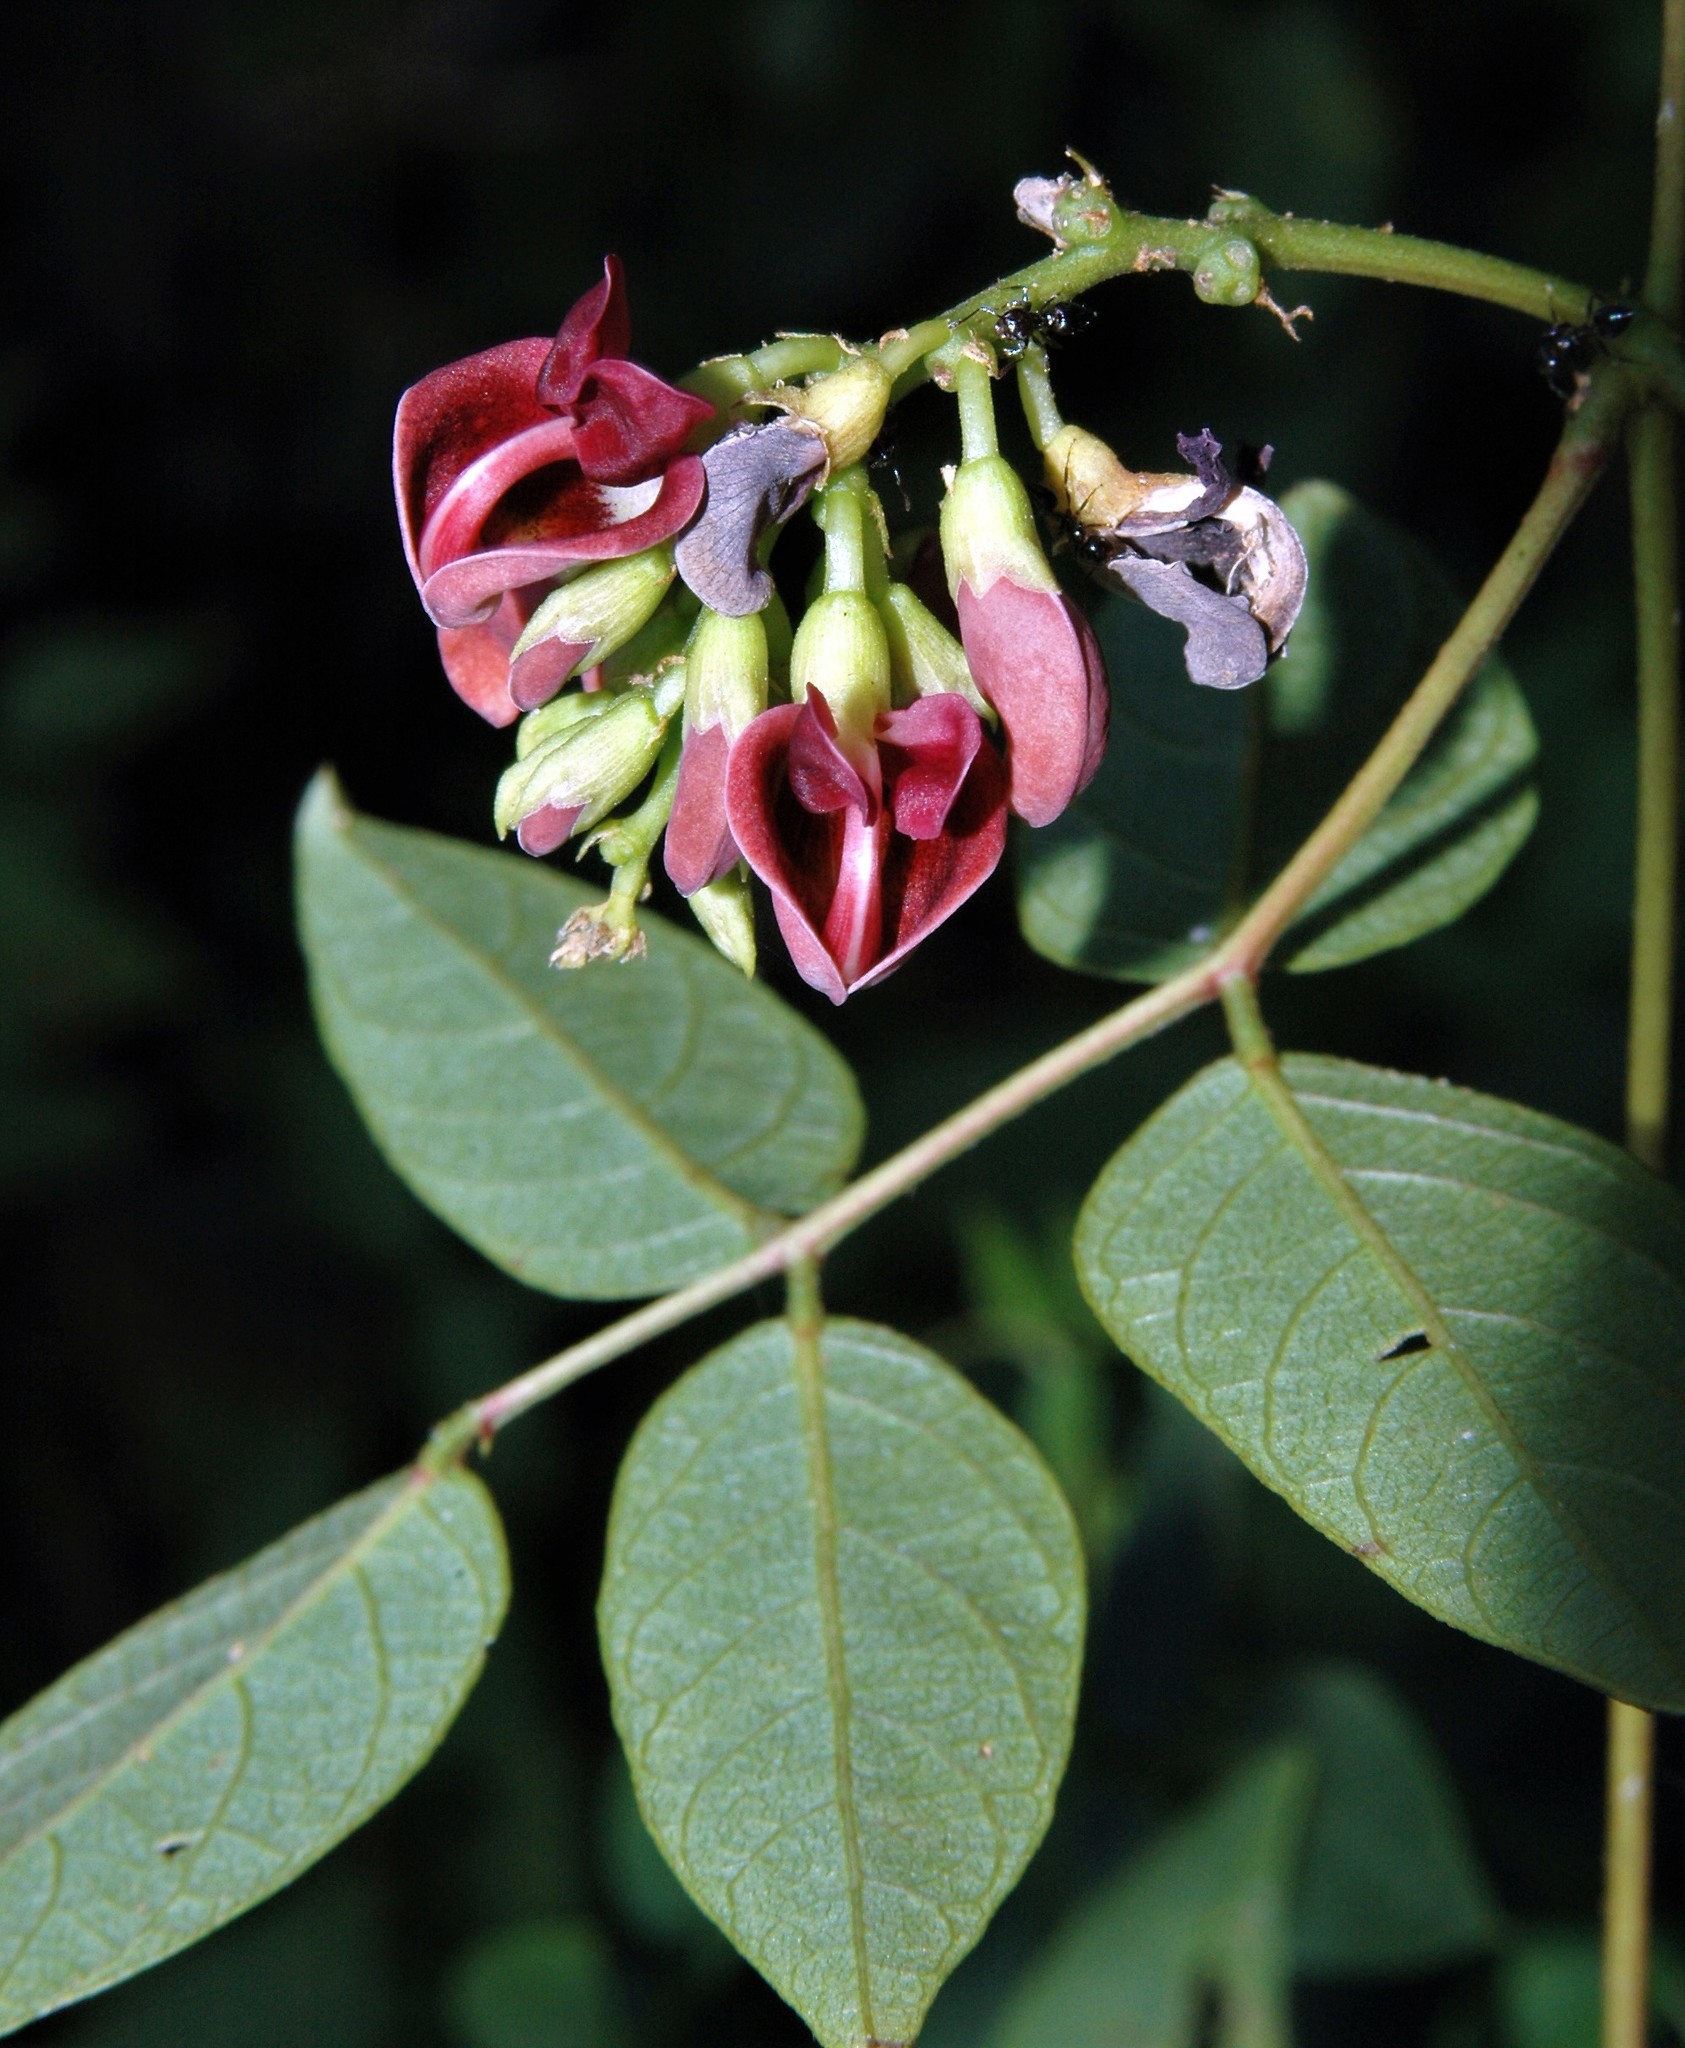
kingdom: Plantae
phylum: Tracheophyta
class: Magnoliopsida
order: Fabales
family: Fabaceae
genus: Apios
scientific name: Apios americana
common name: American potato-bean
